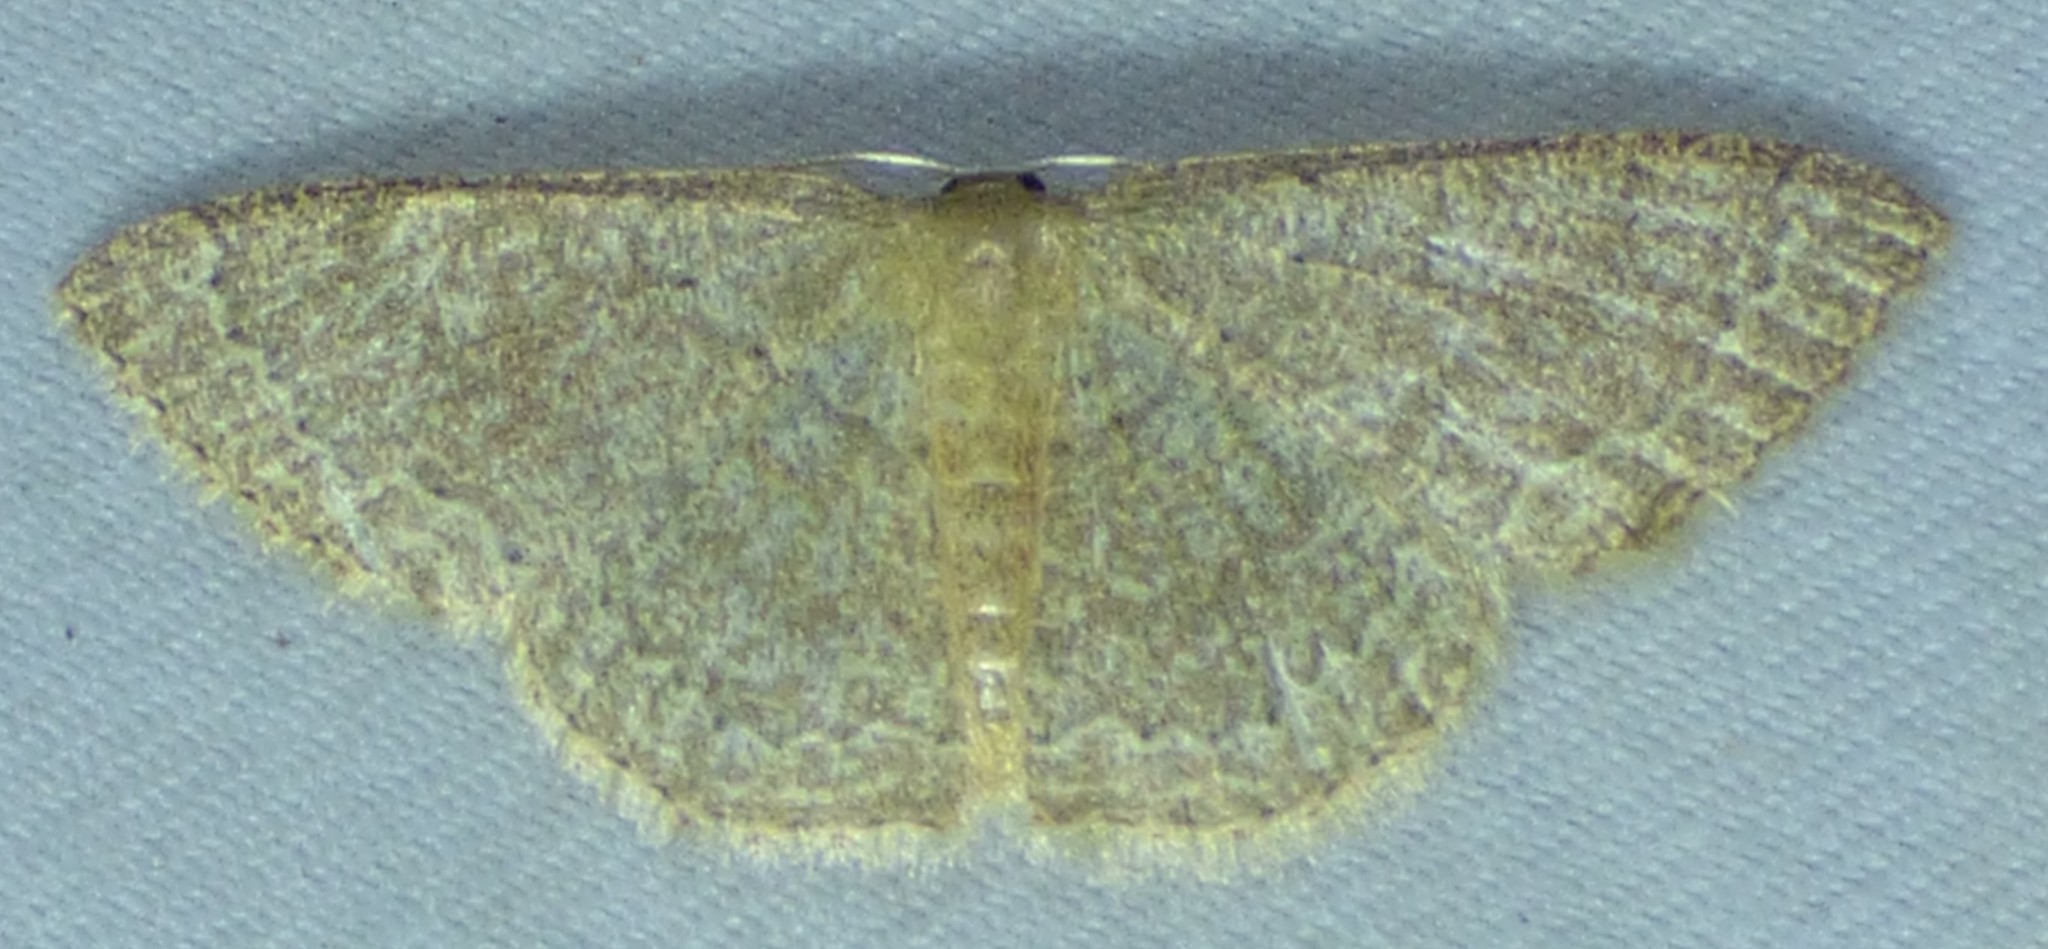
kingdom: Animalia
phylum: Arthropoda
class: Insecta
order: Lepidoptera
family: Geometridae
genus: Pleuroprucha
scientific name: Pleuroprucha insulsaria
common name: Common tan wave
